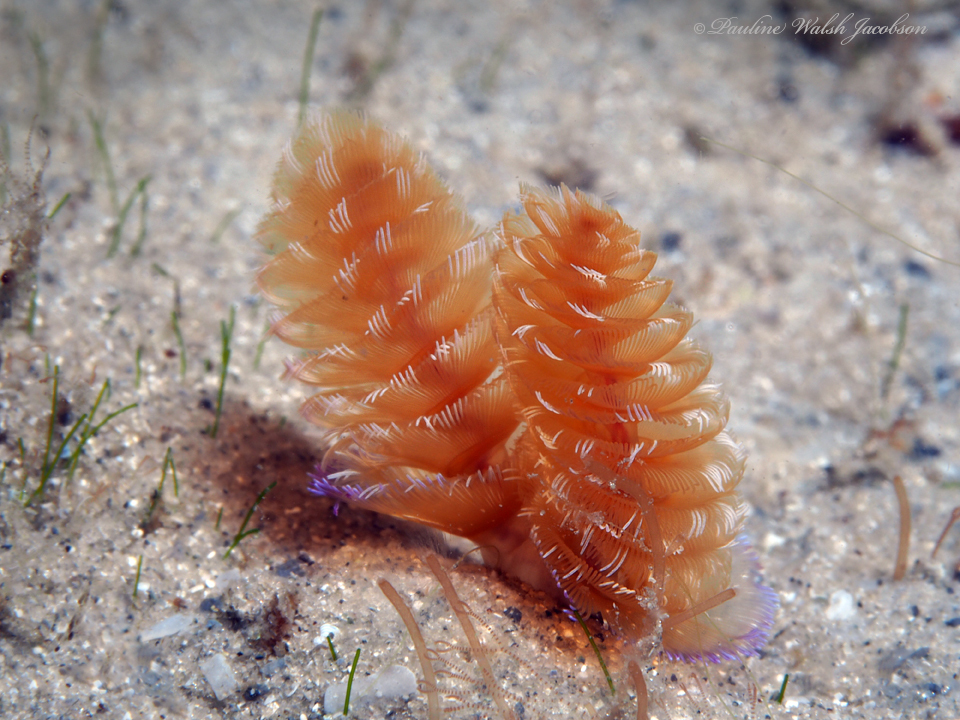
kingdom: Animalia
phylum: Phoronida
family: Phoronidae
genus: Phoronopsis
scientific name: Phoronopsis californica
